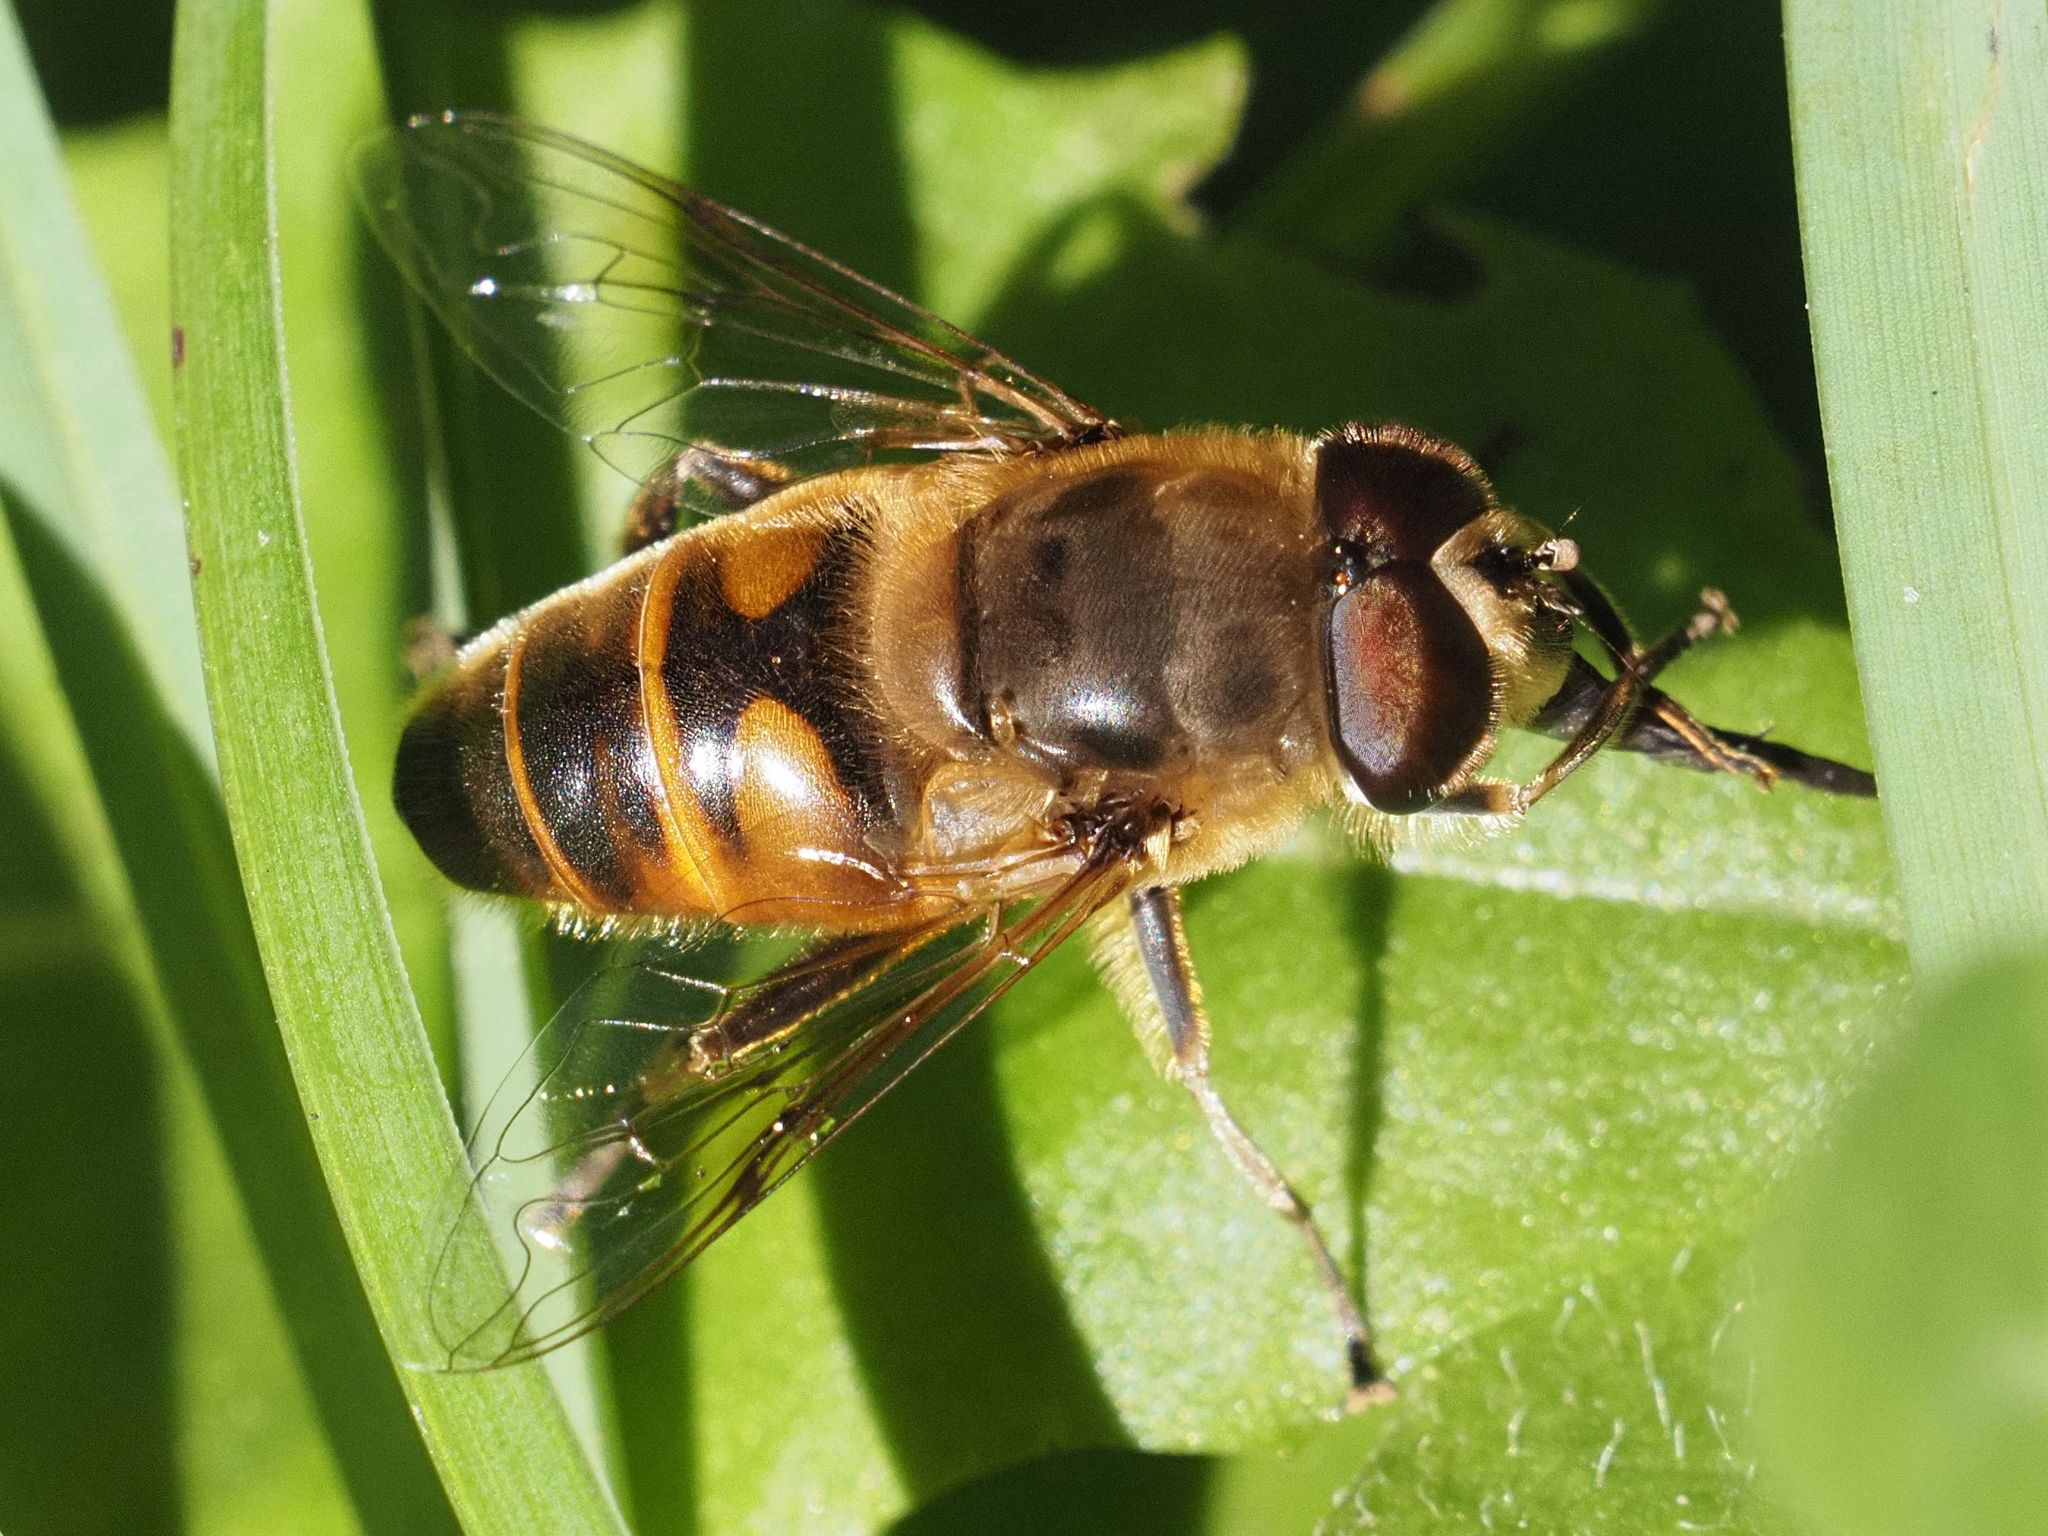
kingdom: Animalia
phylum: Arthropoda
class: Insecta
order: Diptera
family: Syrphidae
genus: Eristalis
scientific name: Eristalis tenax
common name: Drone fly
